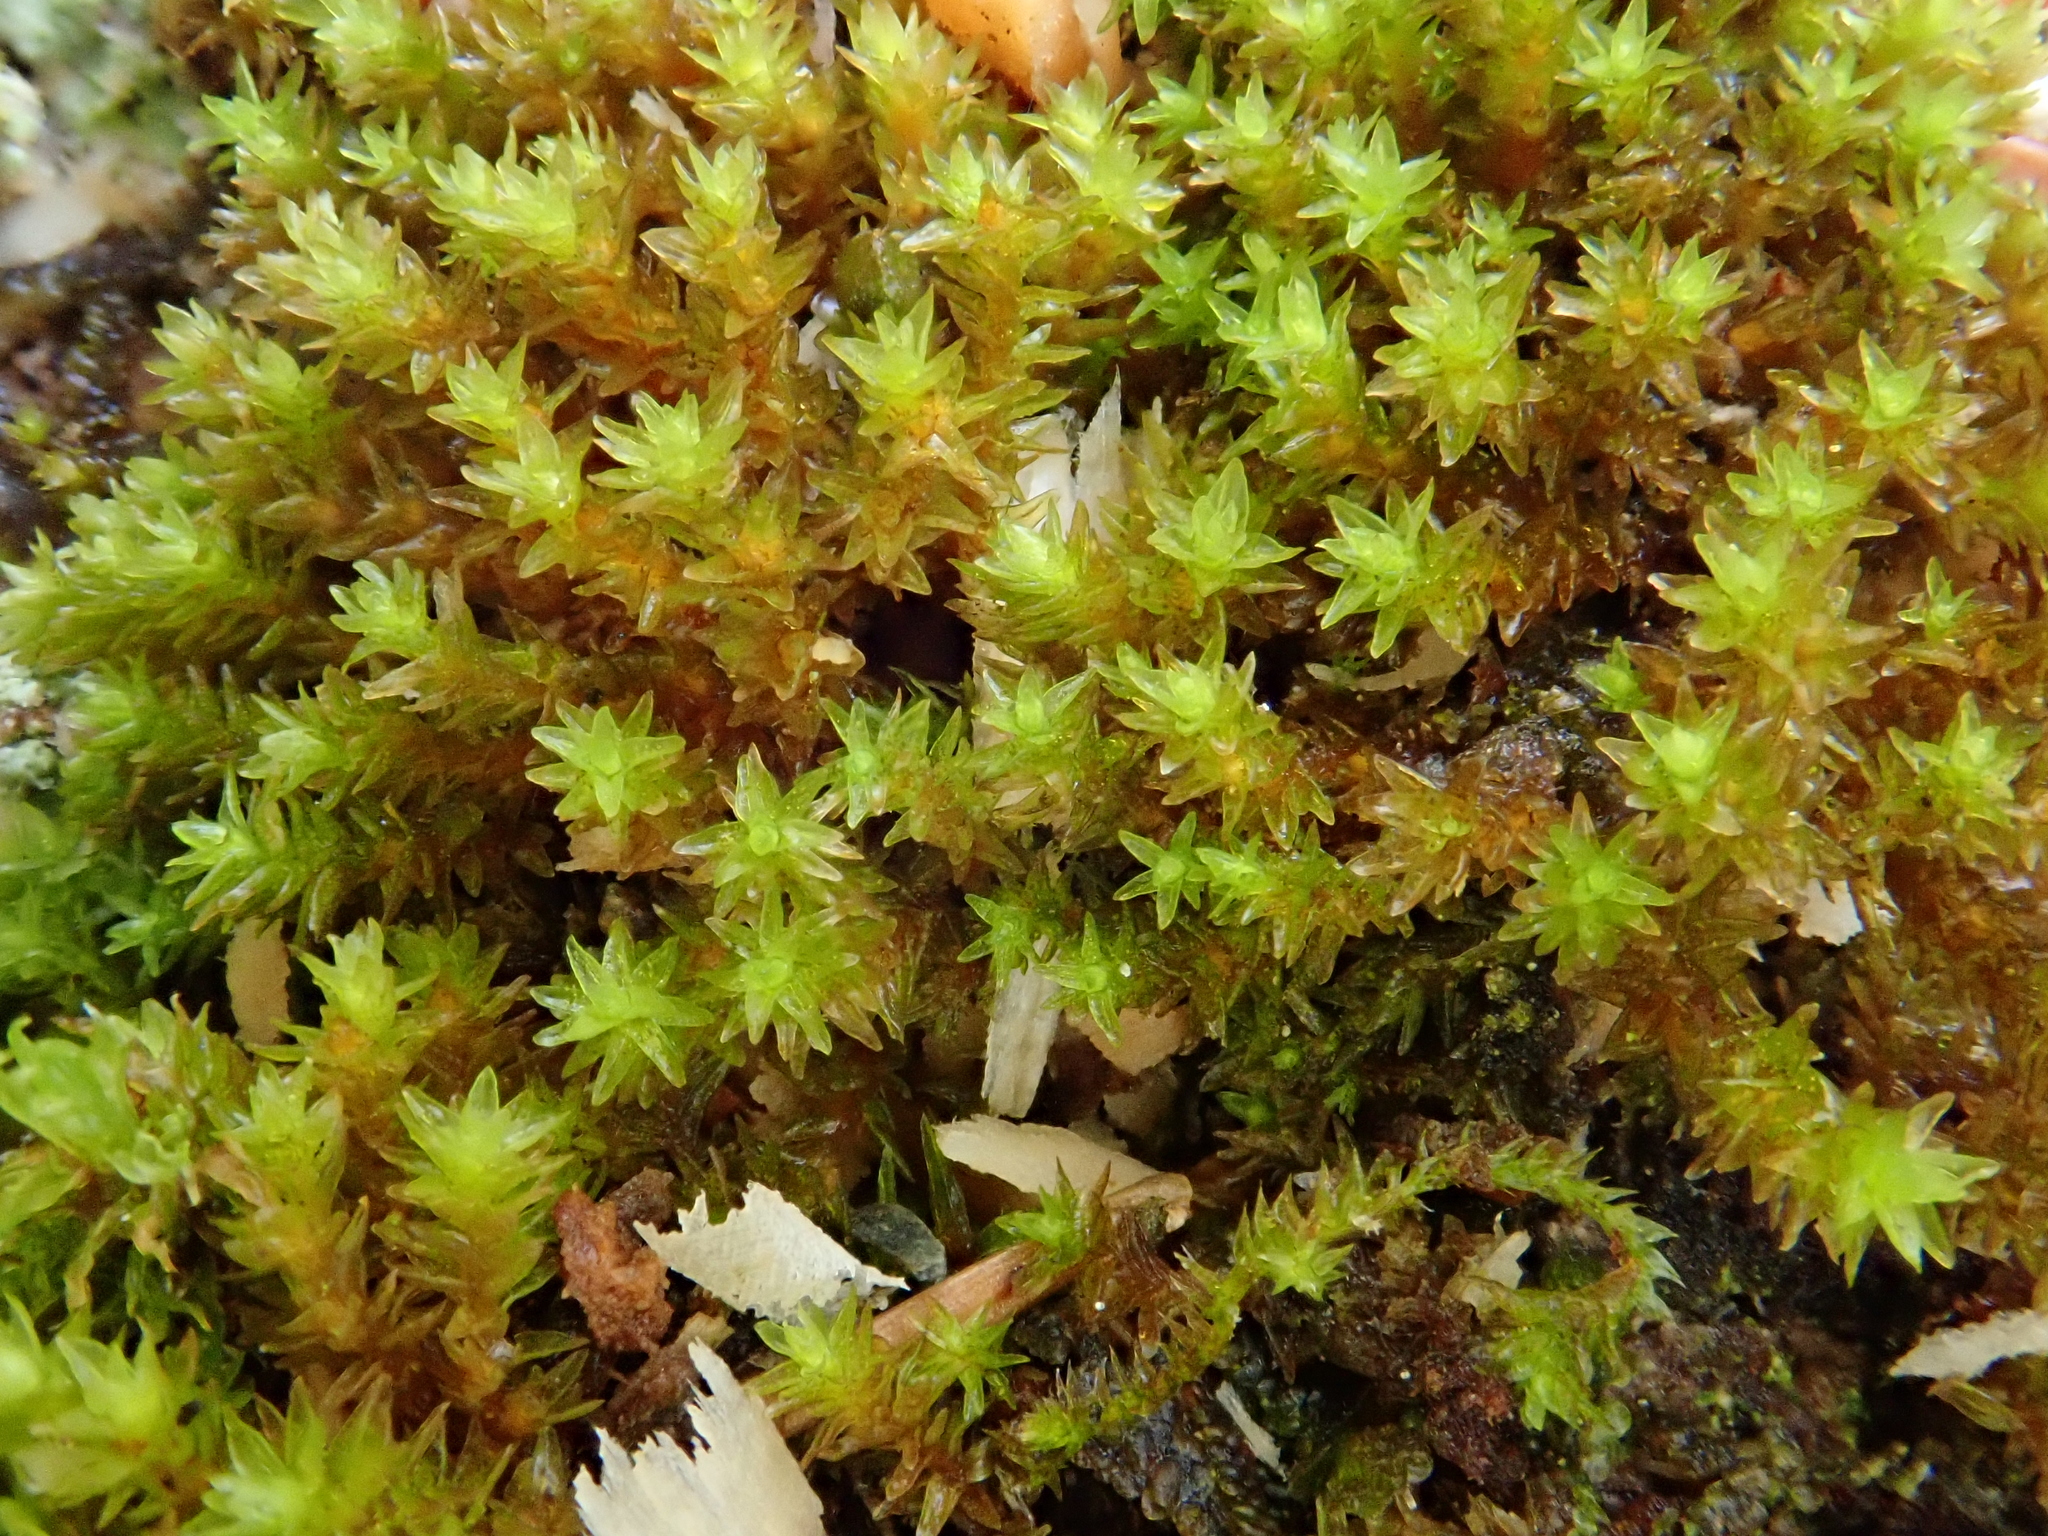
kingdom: Plantae
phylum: Bryophyta
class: Bryopsida
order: Orthotrichales
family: Orthotrichaceae
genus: Nyholmiella
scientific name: Nyholmiella obtusifolia
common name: Blunt-leaved bristle-moss
